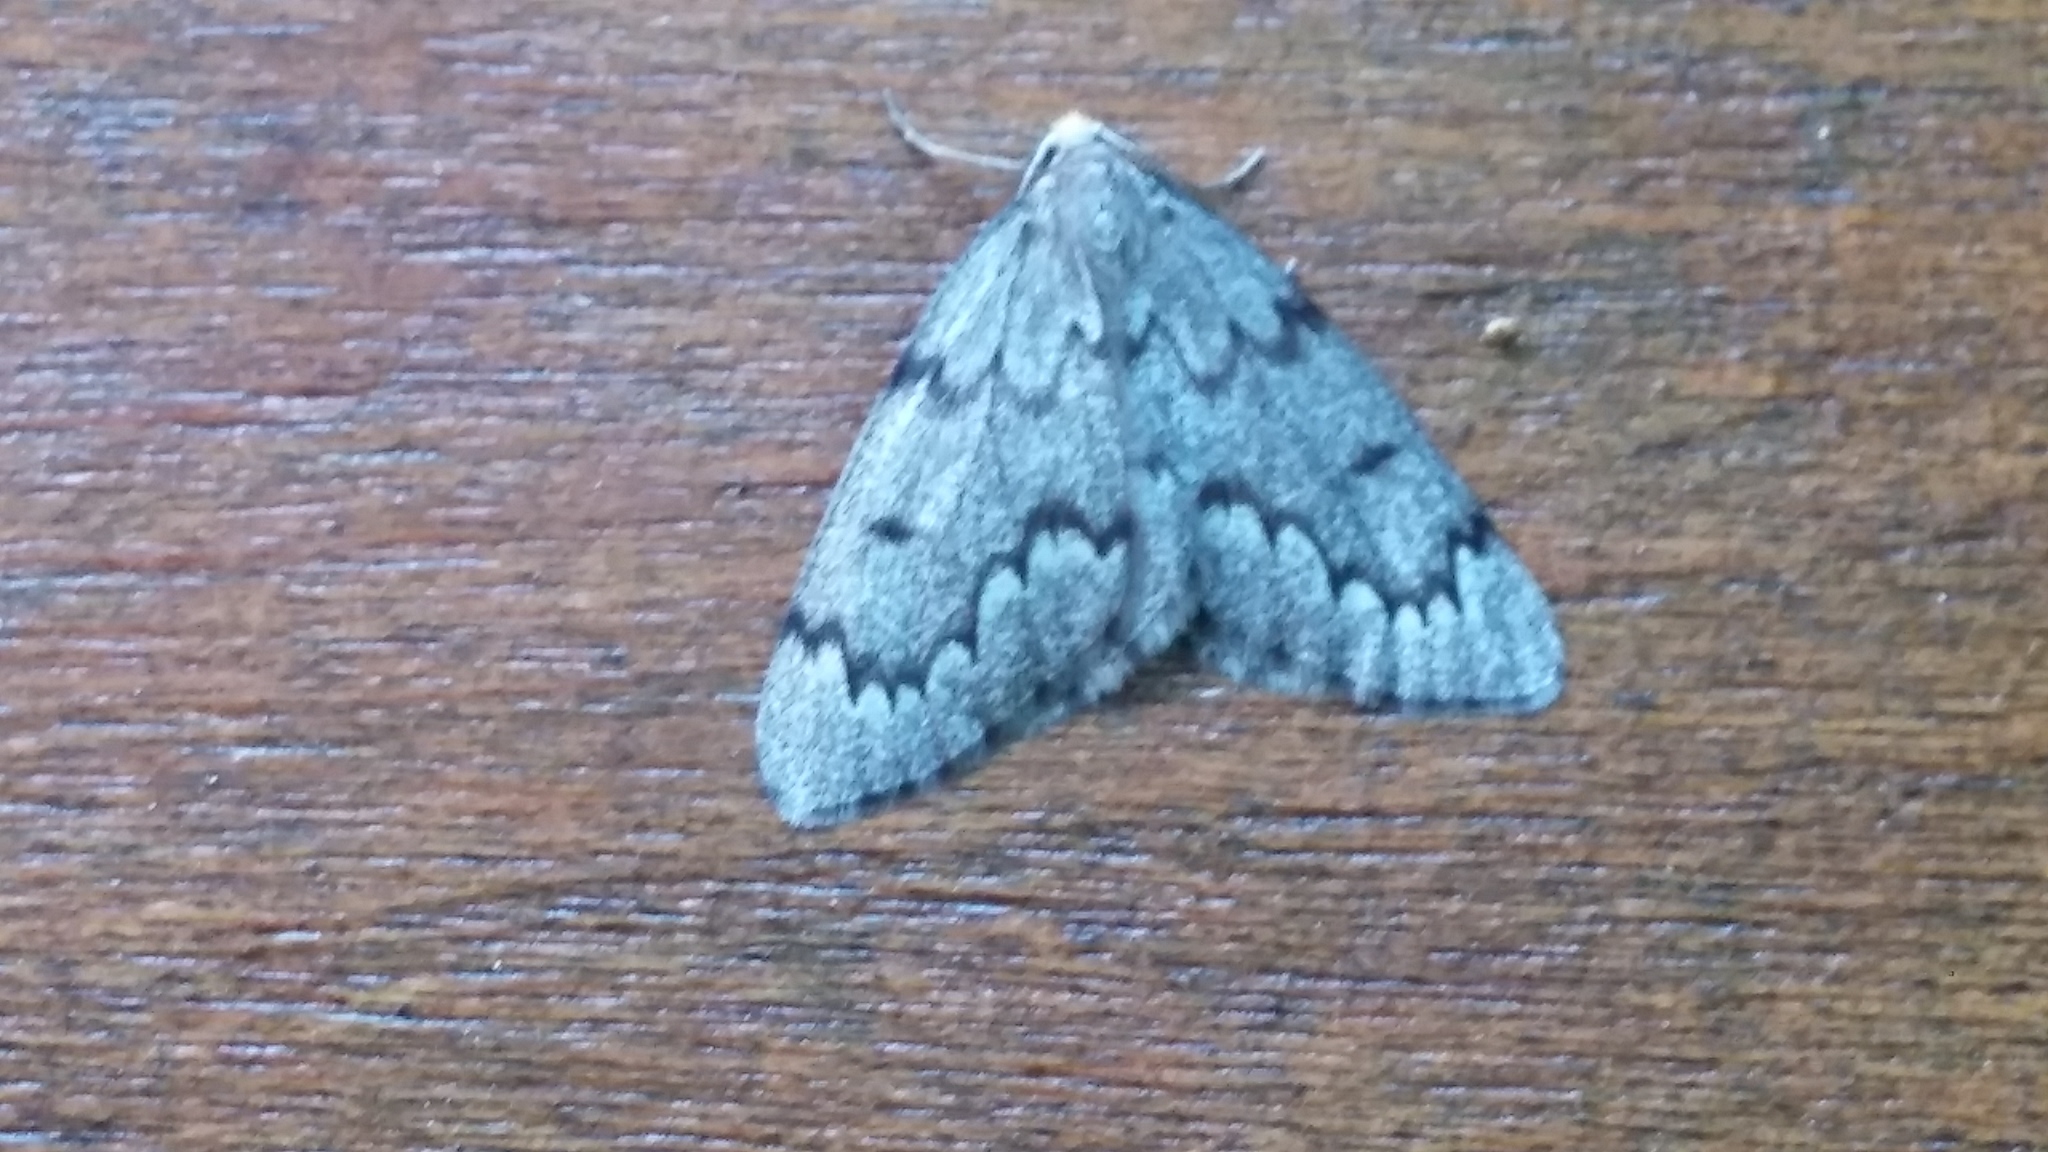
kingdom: Animalia
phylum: Arthropoda
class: Insecta
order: Lepidoptera
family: Geometridae
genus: Nepytia
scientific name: Nepytia canosaria
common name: False hemlock looper
